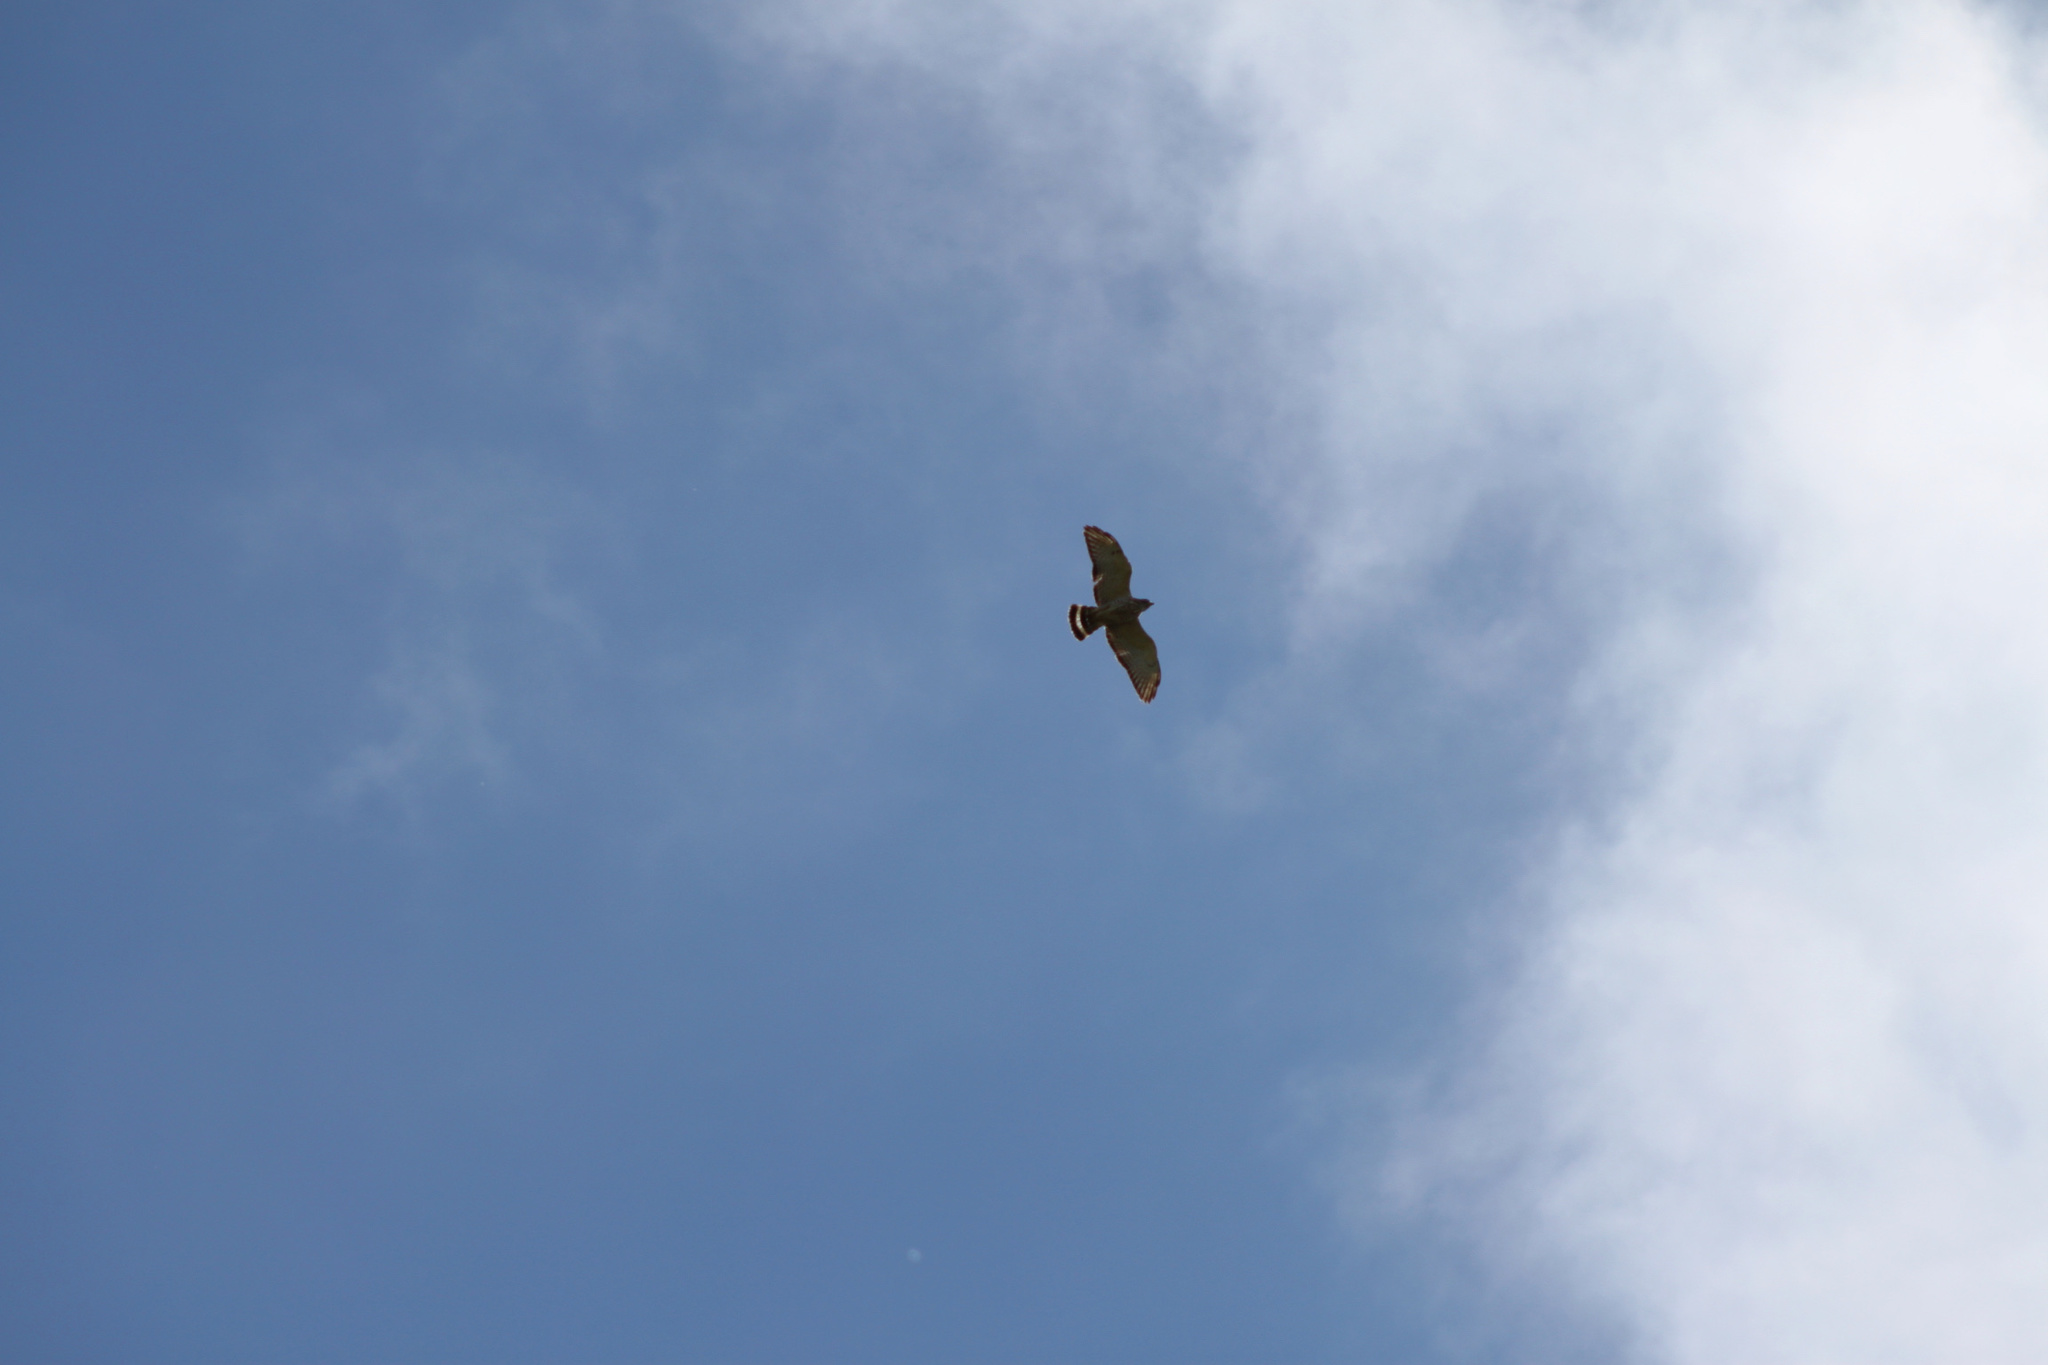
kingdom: Animalia
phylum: Chordata
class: Aves
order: Accipitriformes
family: Accipitridae
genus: Buteo
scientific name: Buteo platypterus
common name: Broad-winged hawk
